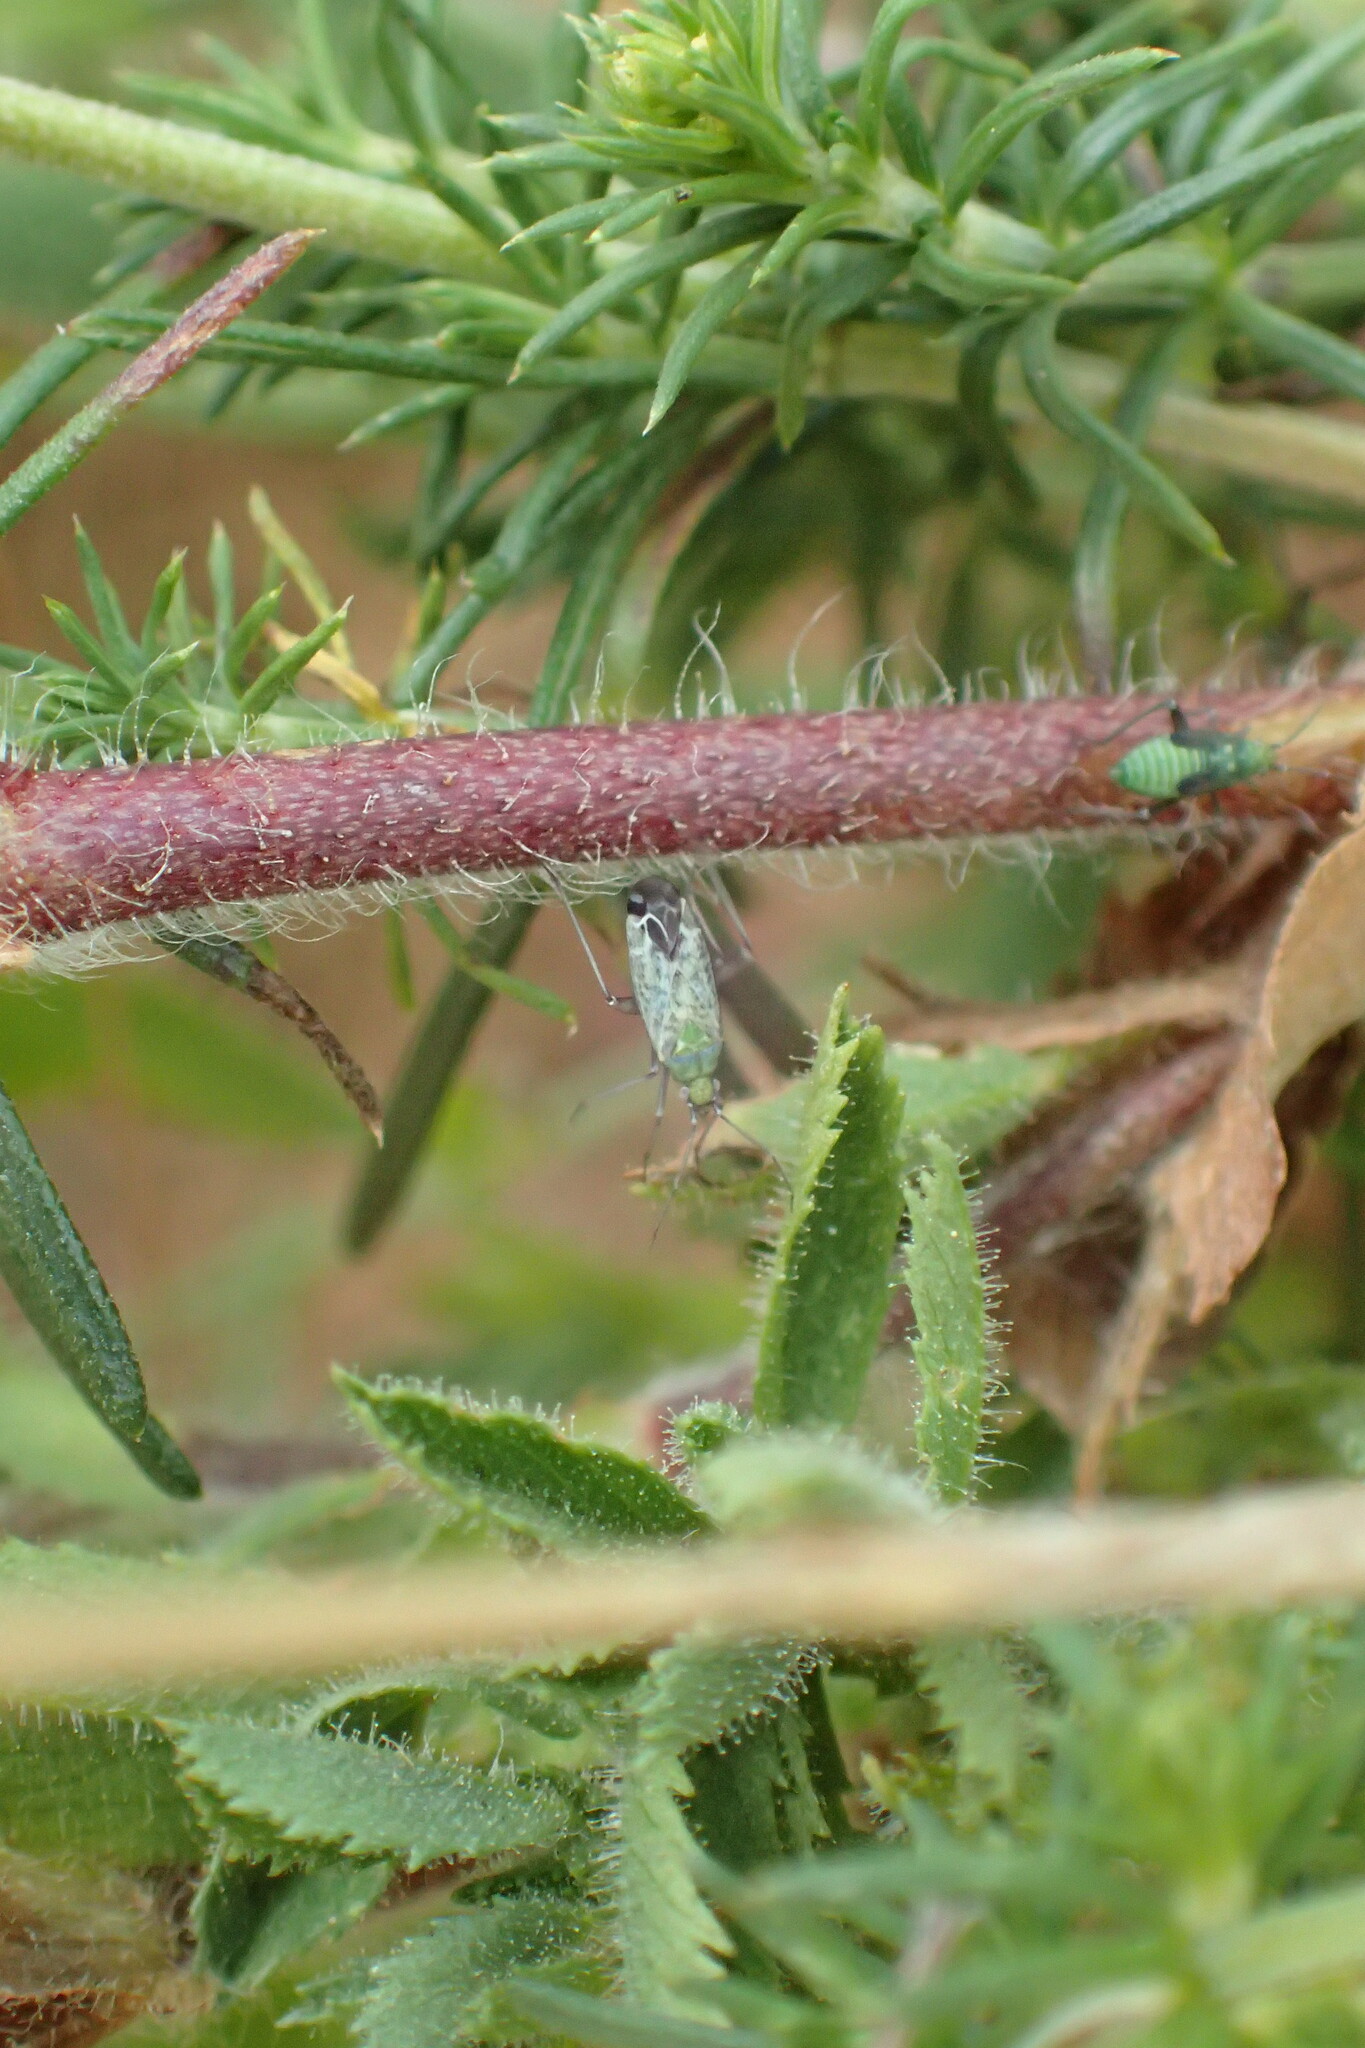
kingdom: Animalia
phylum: Arthropoda
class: Insecta
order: Hemiptera
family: Miridae
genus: Macrotylus
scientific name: Macrotylus paykullii
